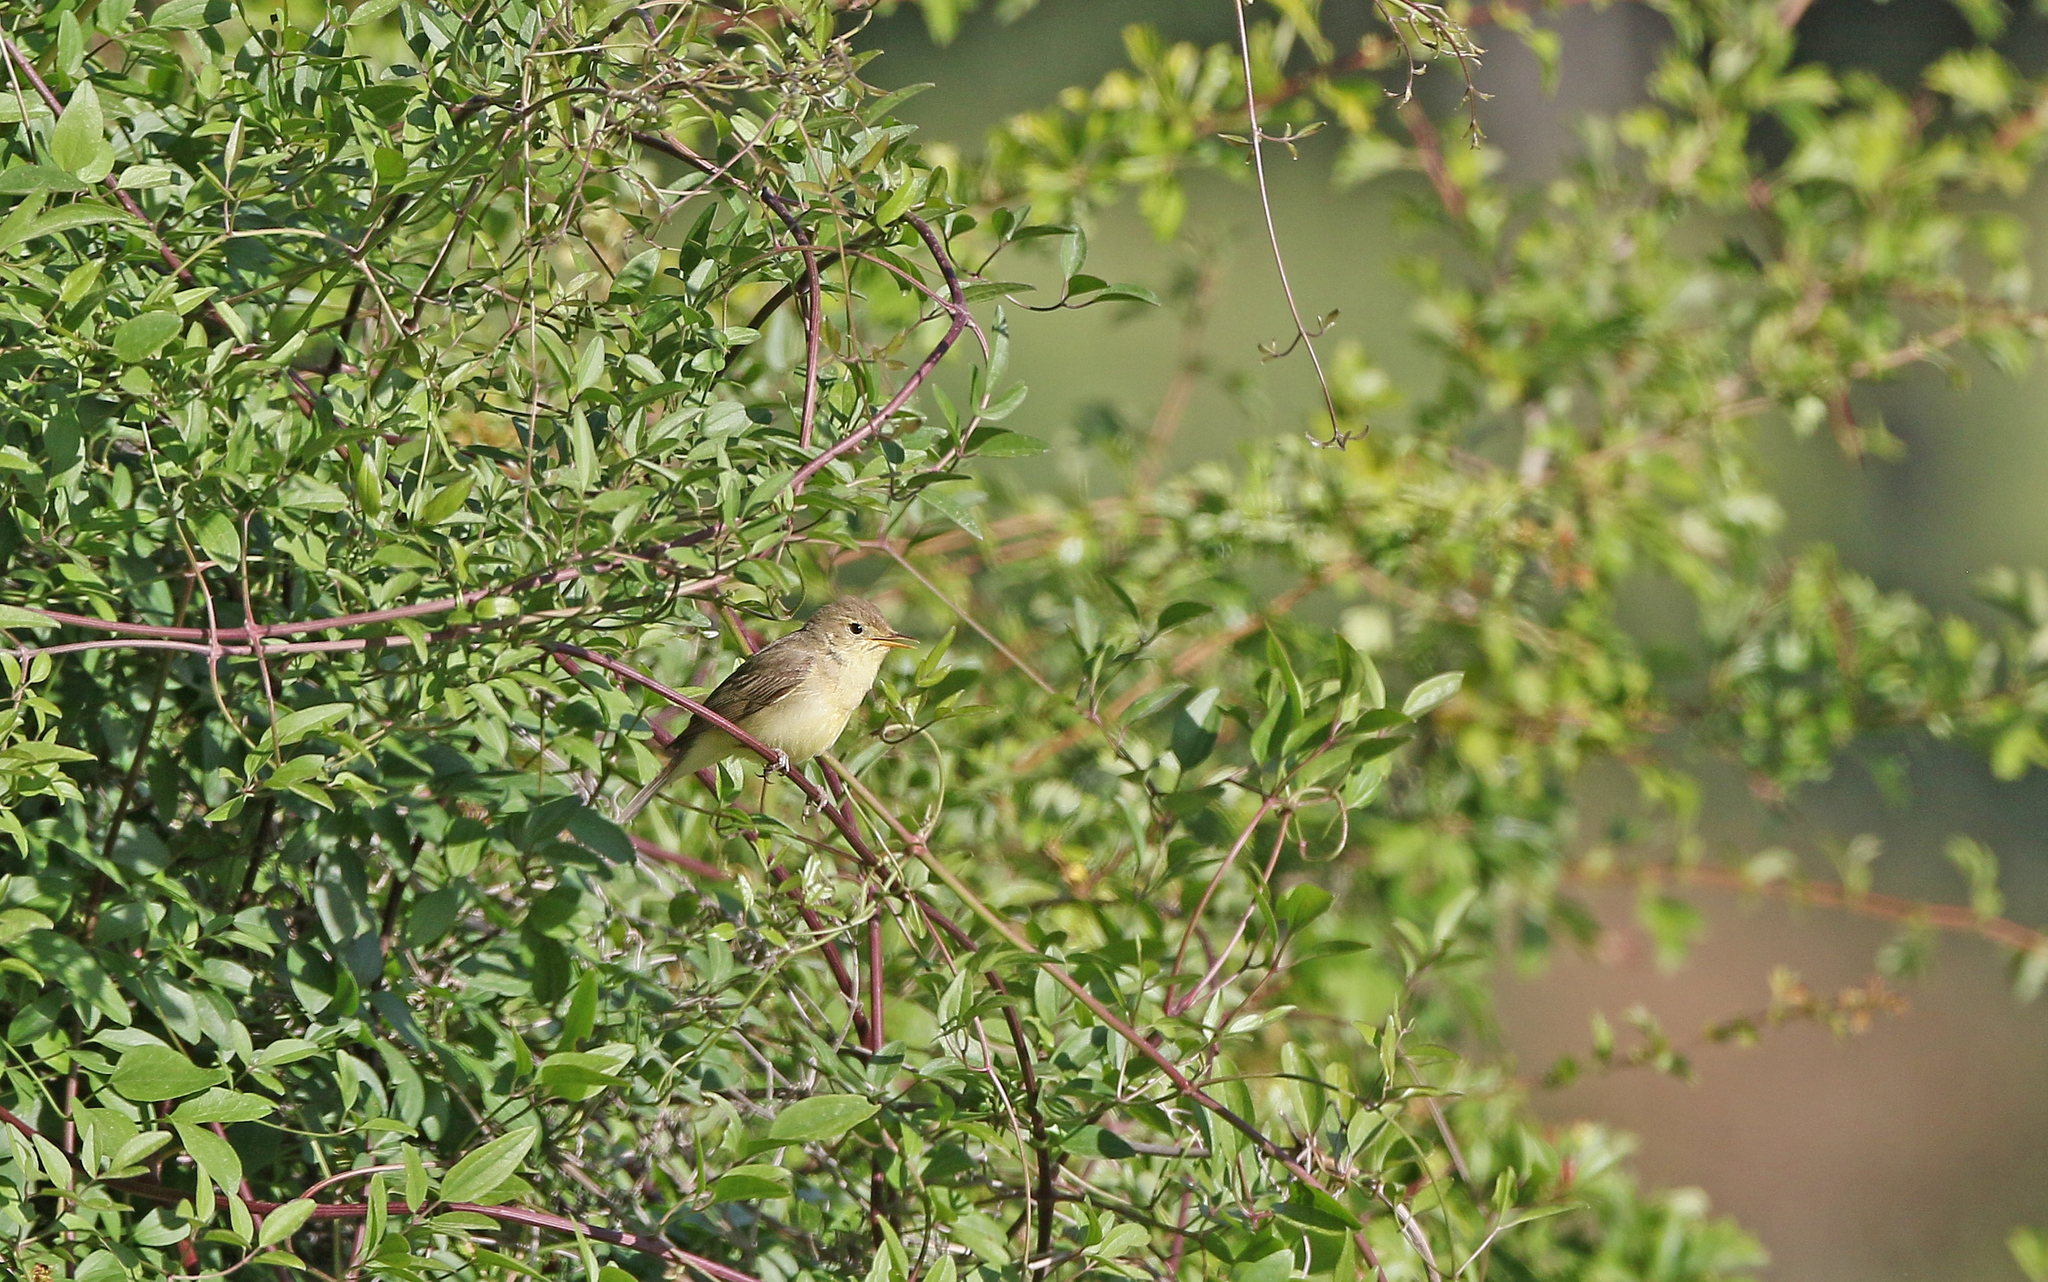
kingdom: Animalia
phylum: Chordata
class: Aves
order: Passeriformes
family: Acrocephalidae
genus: Hippolais
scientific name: Hippolais polyglotta
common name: Melodious warbler
